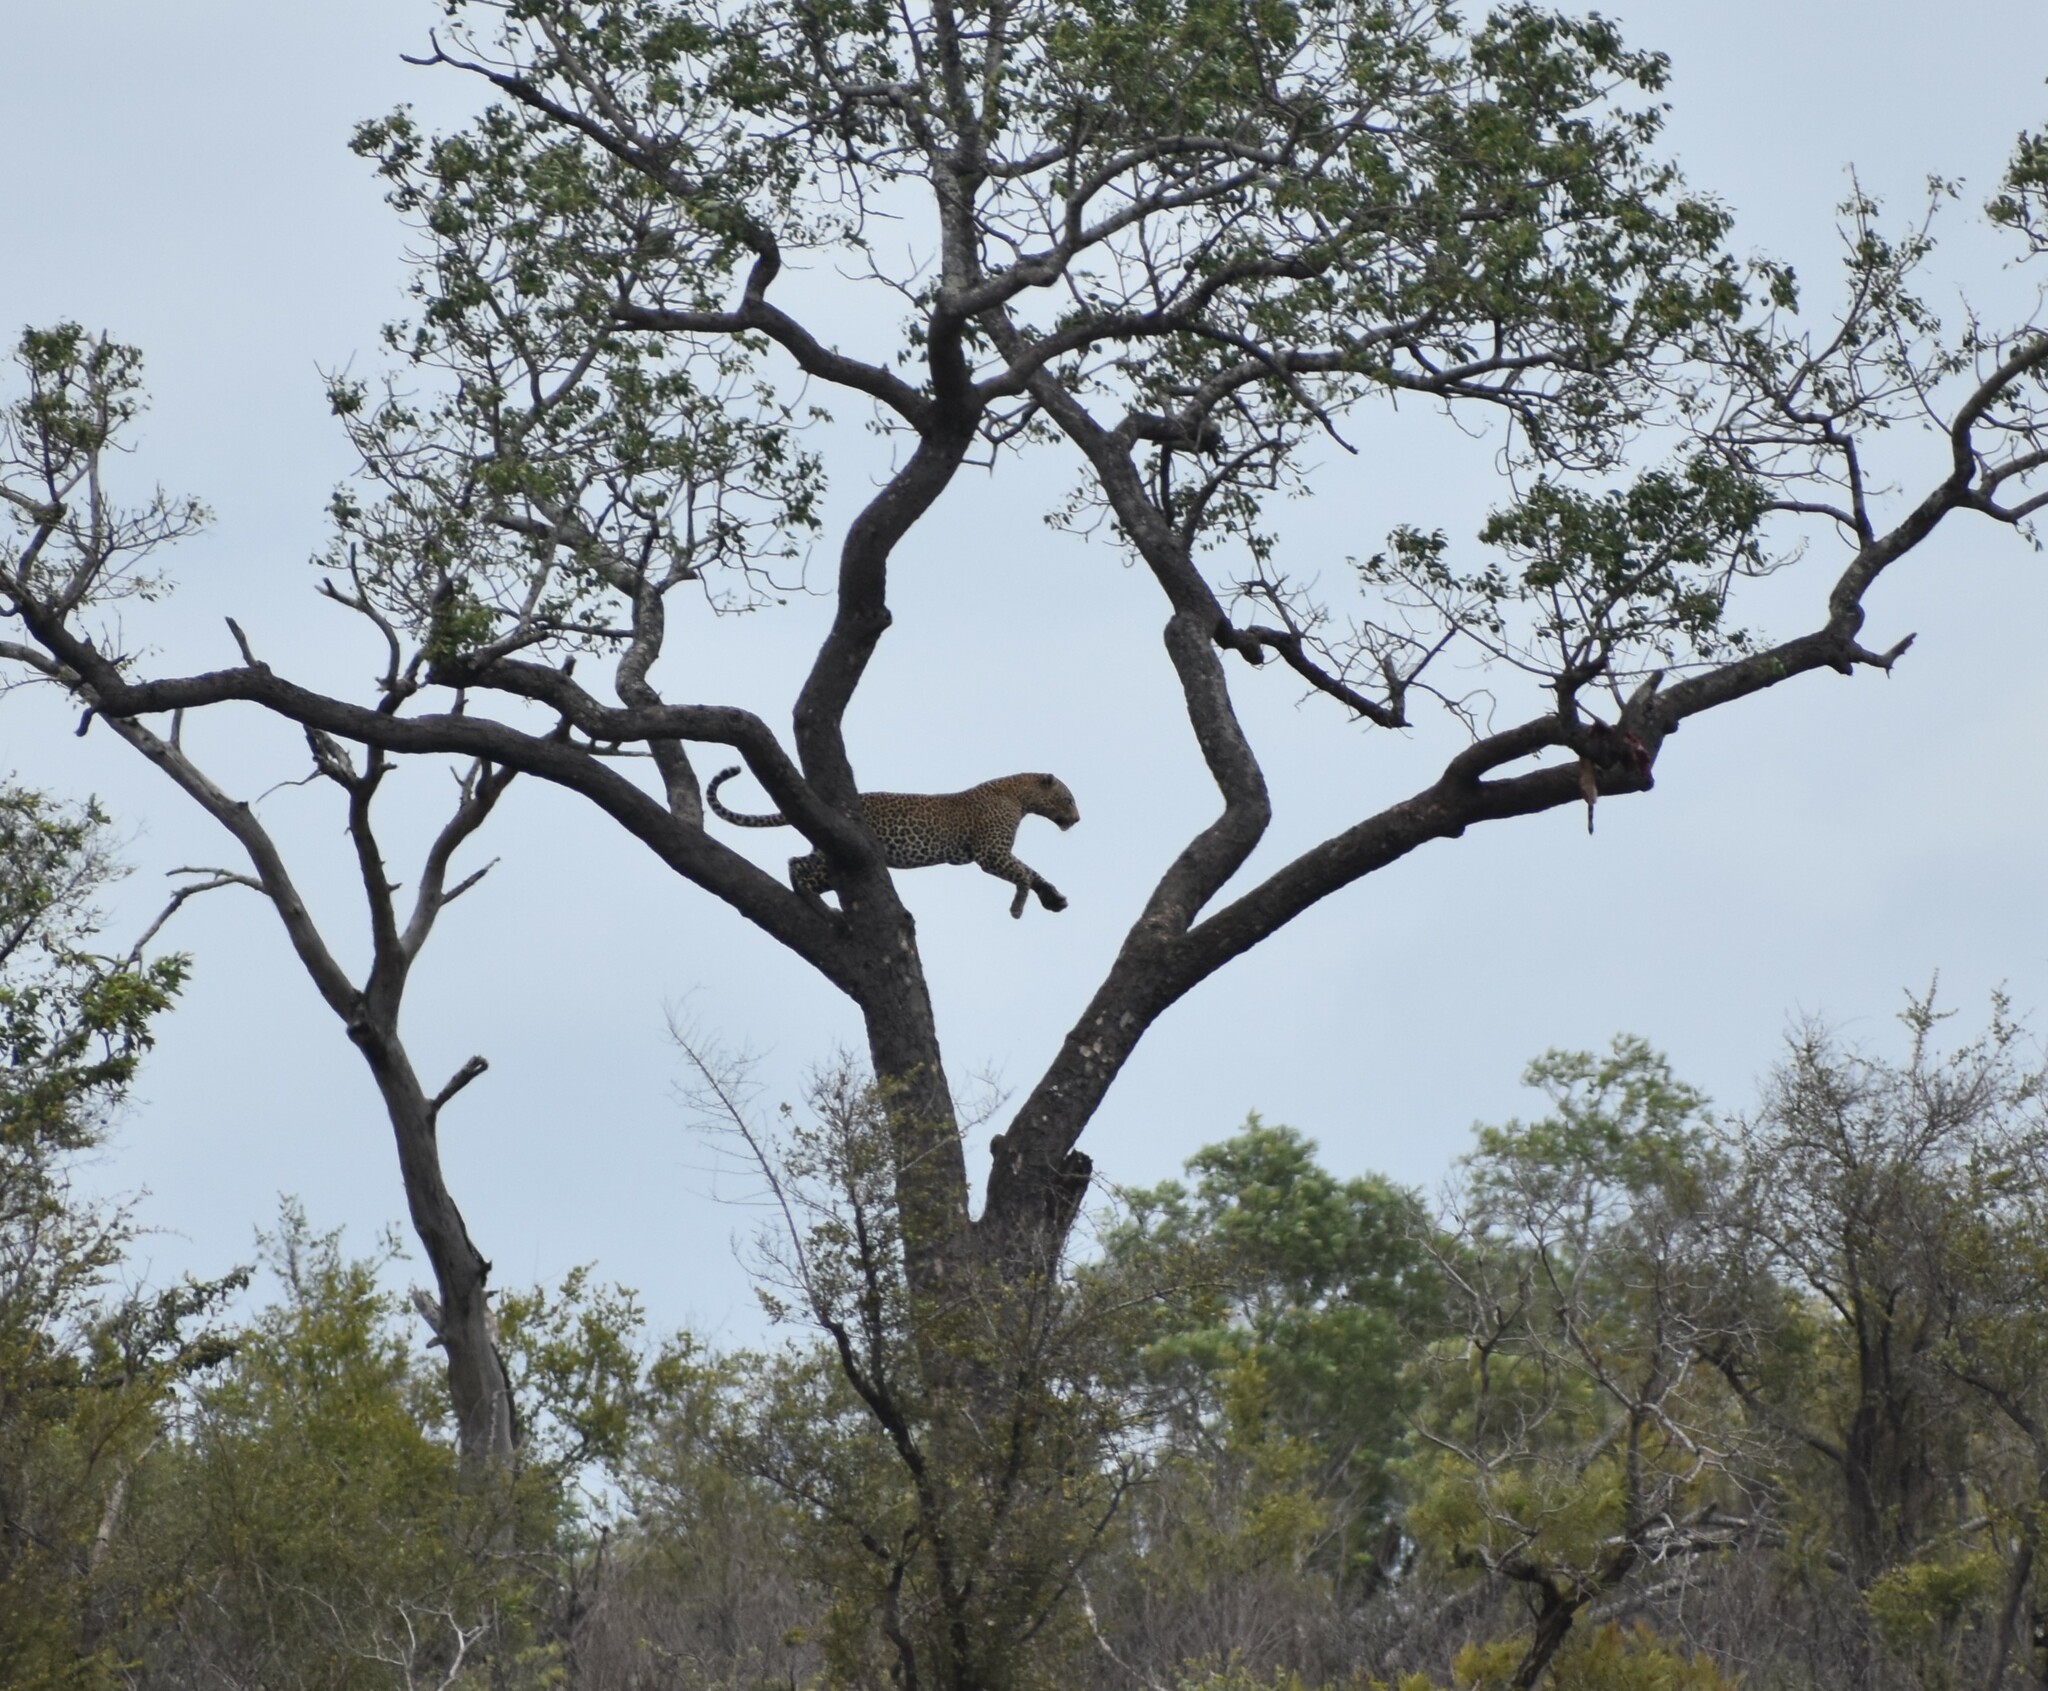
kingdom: Animalia
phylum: Chordata
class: Mammalia
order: Carnivora
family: Felidae
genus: Panthera
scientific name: Panthera pardus
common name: Leopard
